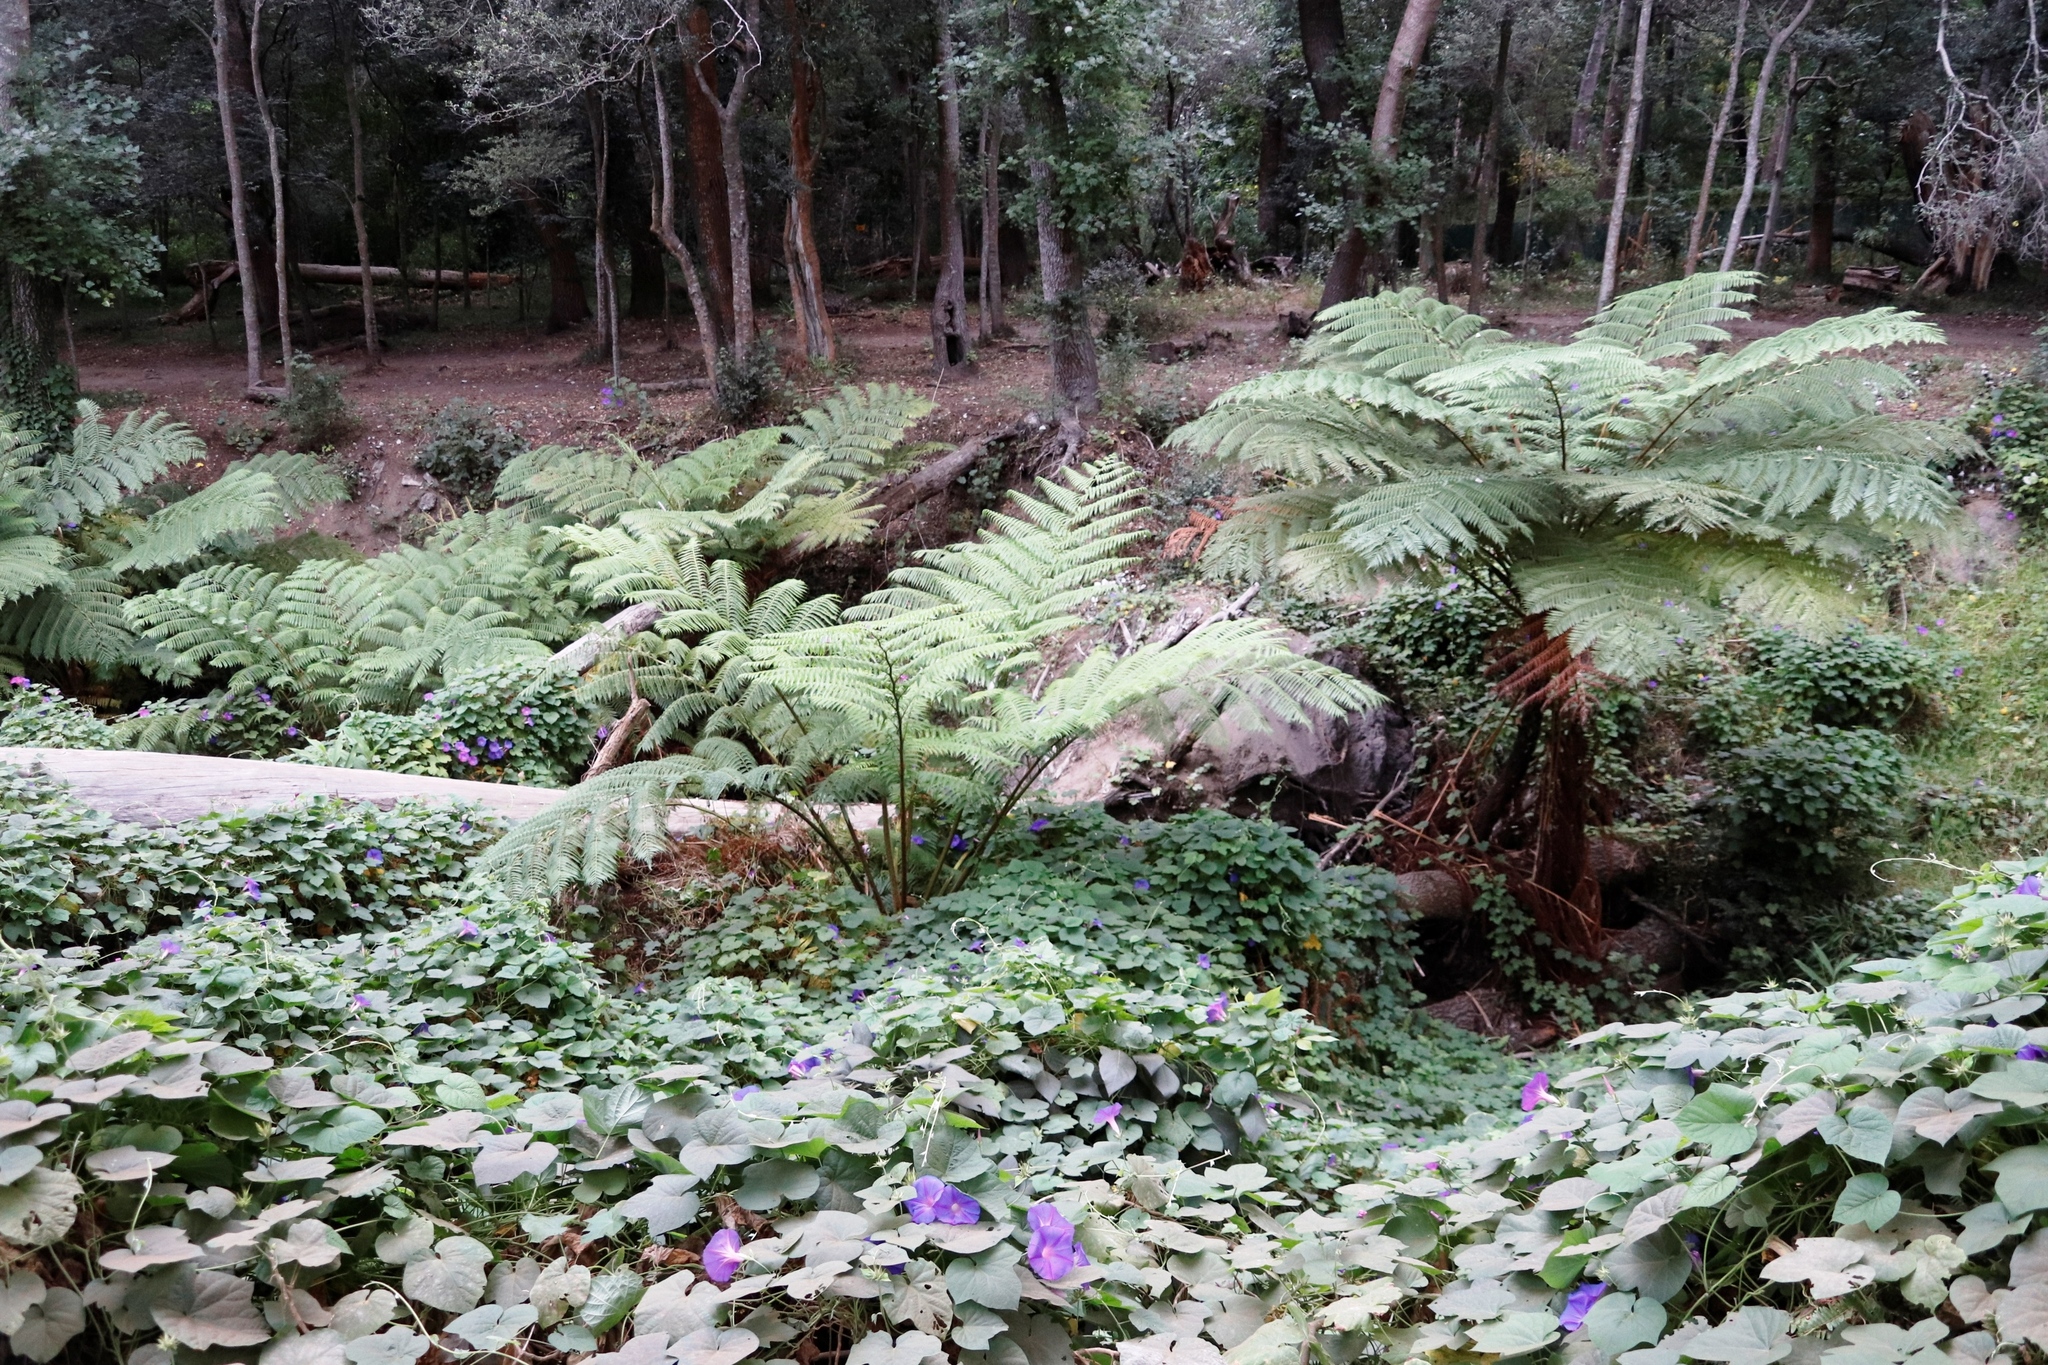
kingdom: Plantae
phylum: Tracheophyta
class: Polypodiopsida
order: Cyatheales
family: Cyatheaceae
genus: Sphaeropteris
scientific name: Sphaeropteris cooperi
